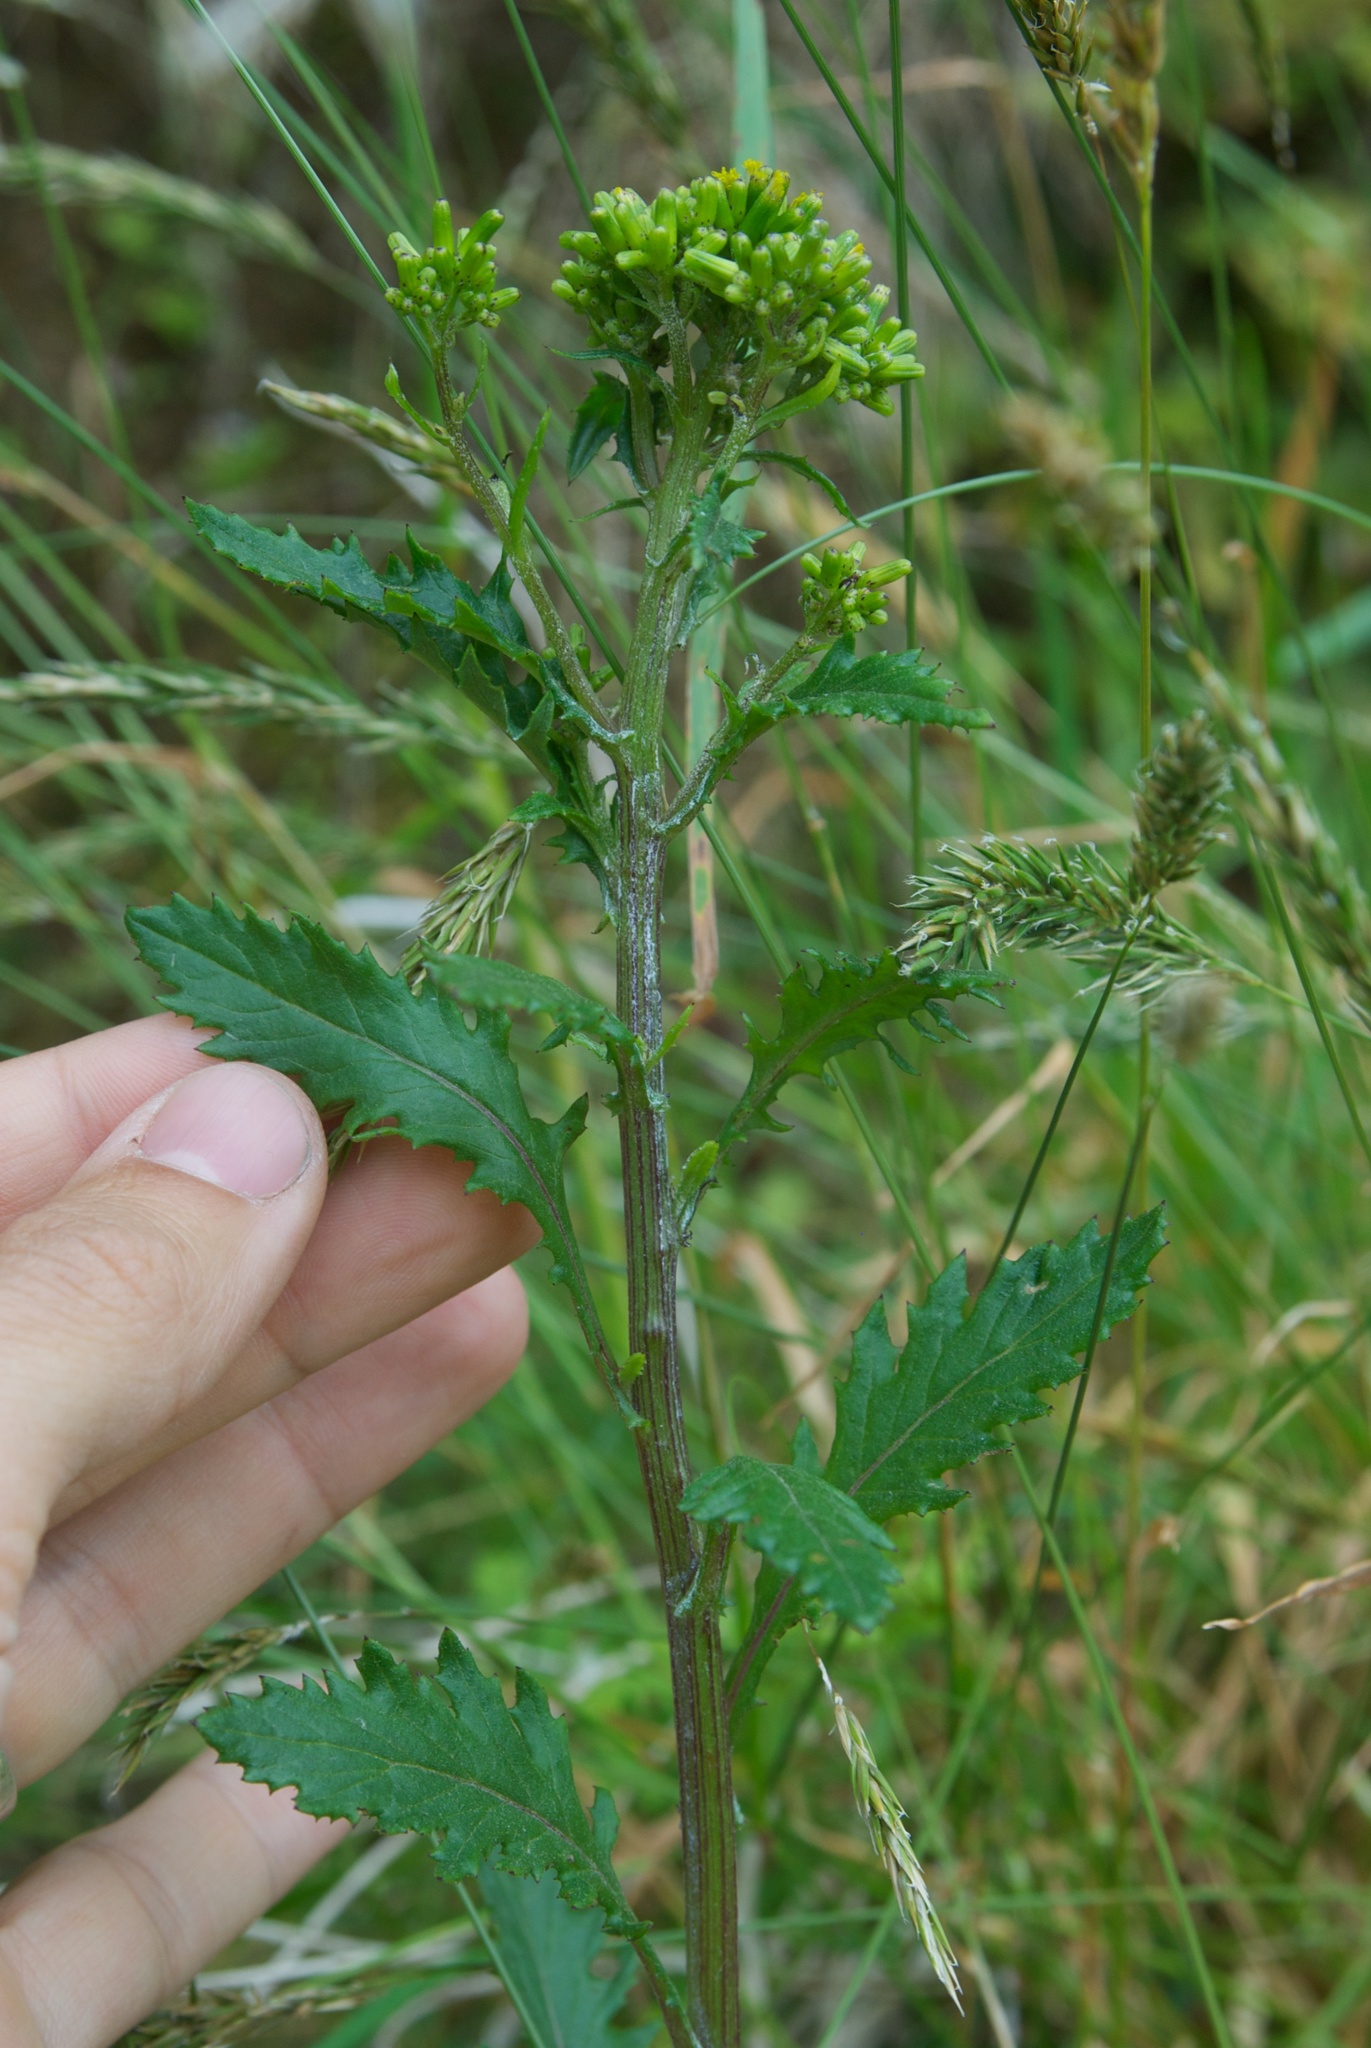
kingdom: Plantae
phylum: Tracheophyta
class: Magnoliopsida
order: Asterales
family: Asteraceae
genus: Senecio
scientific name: Senecio biserratus
